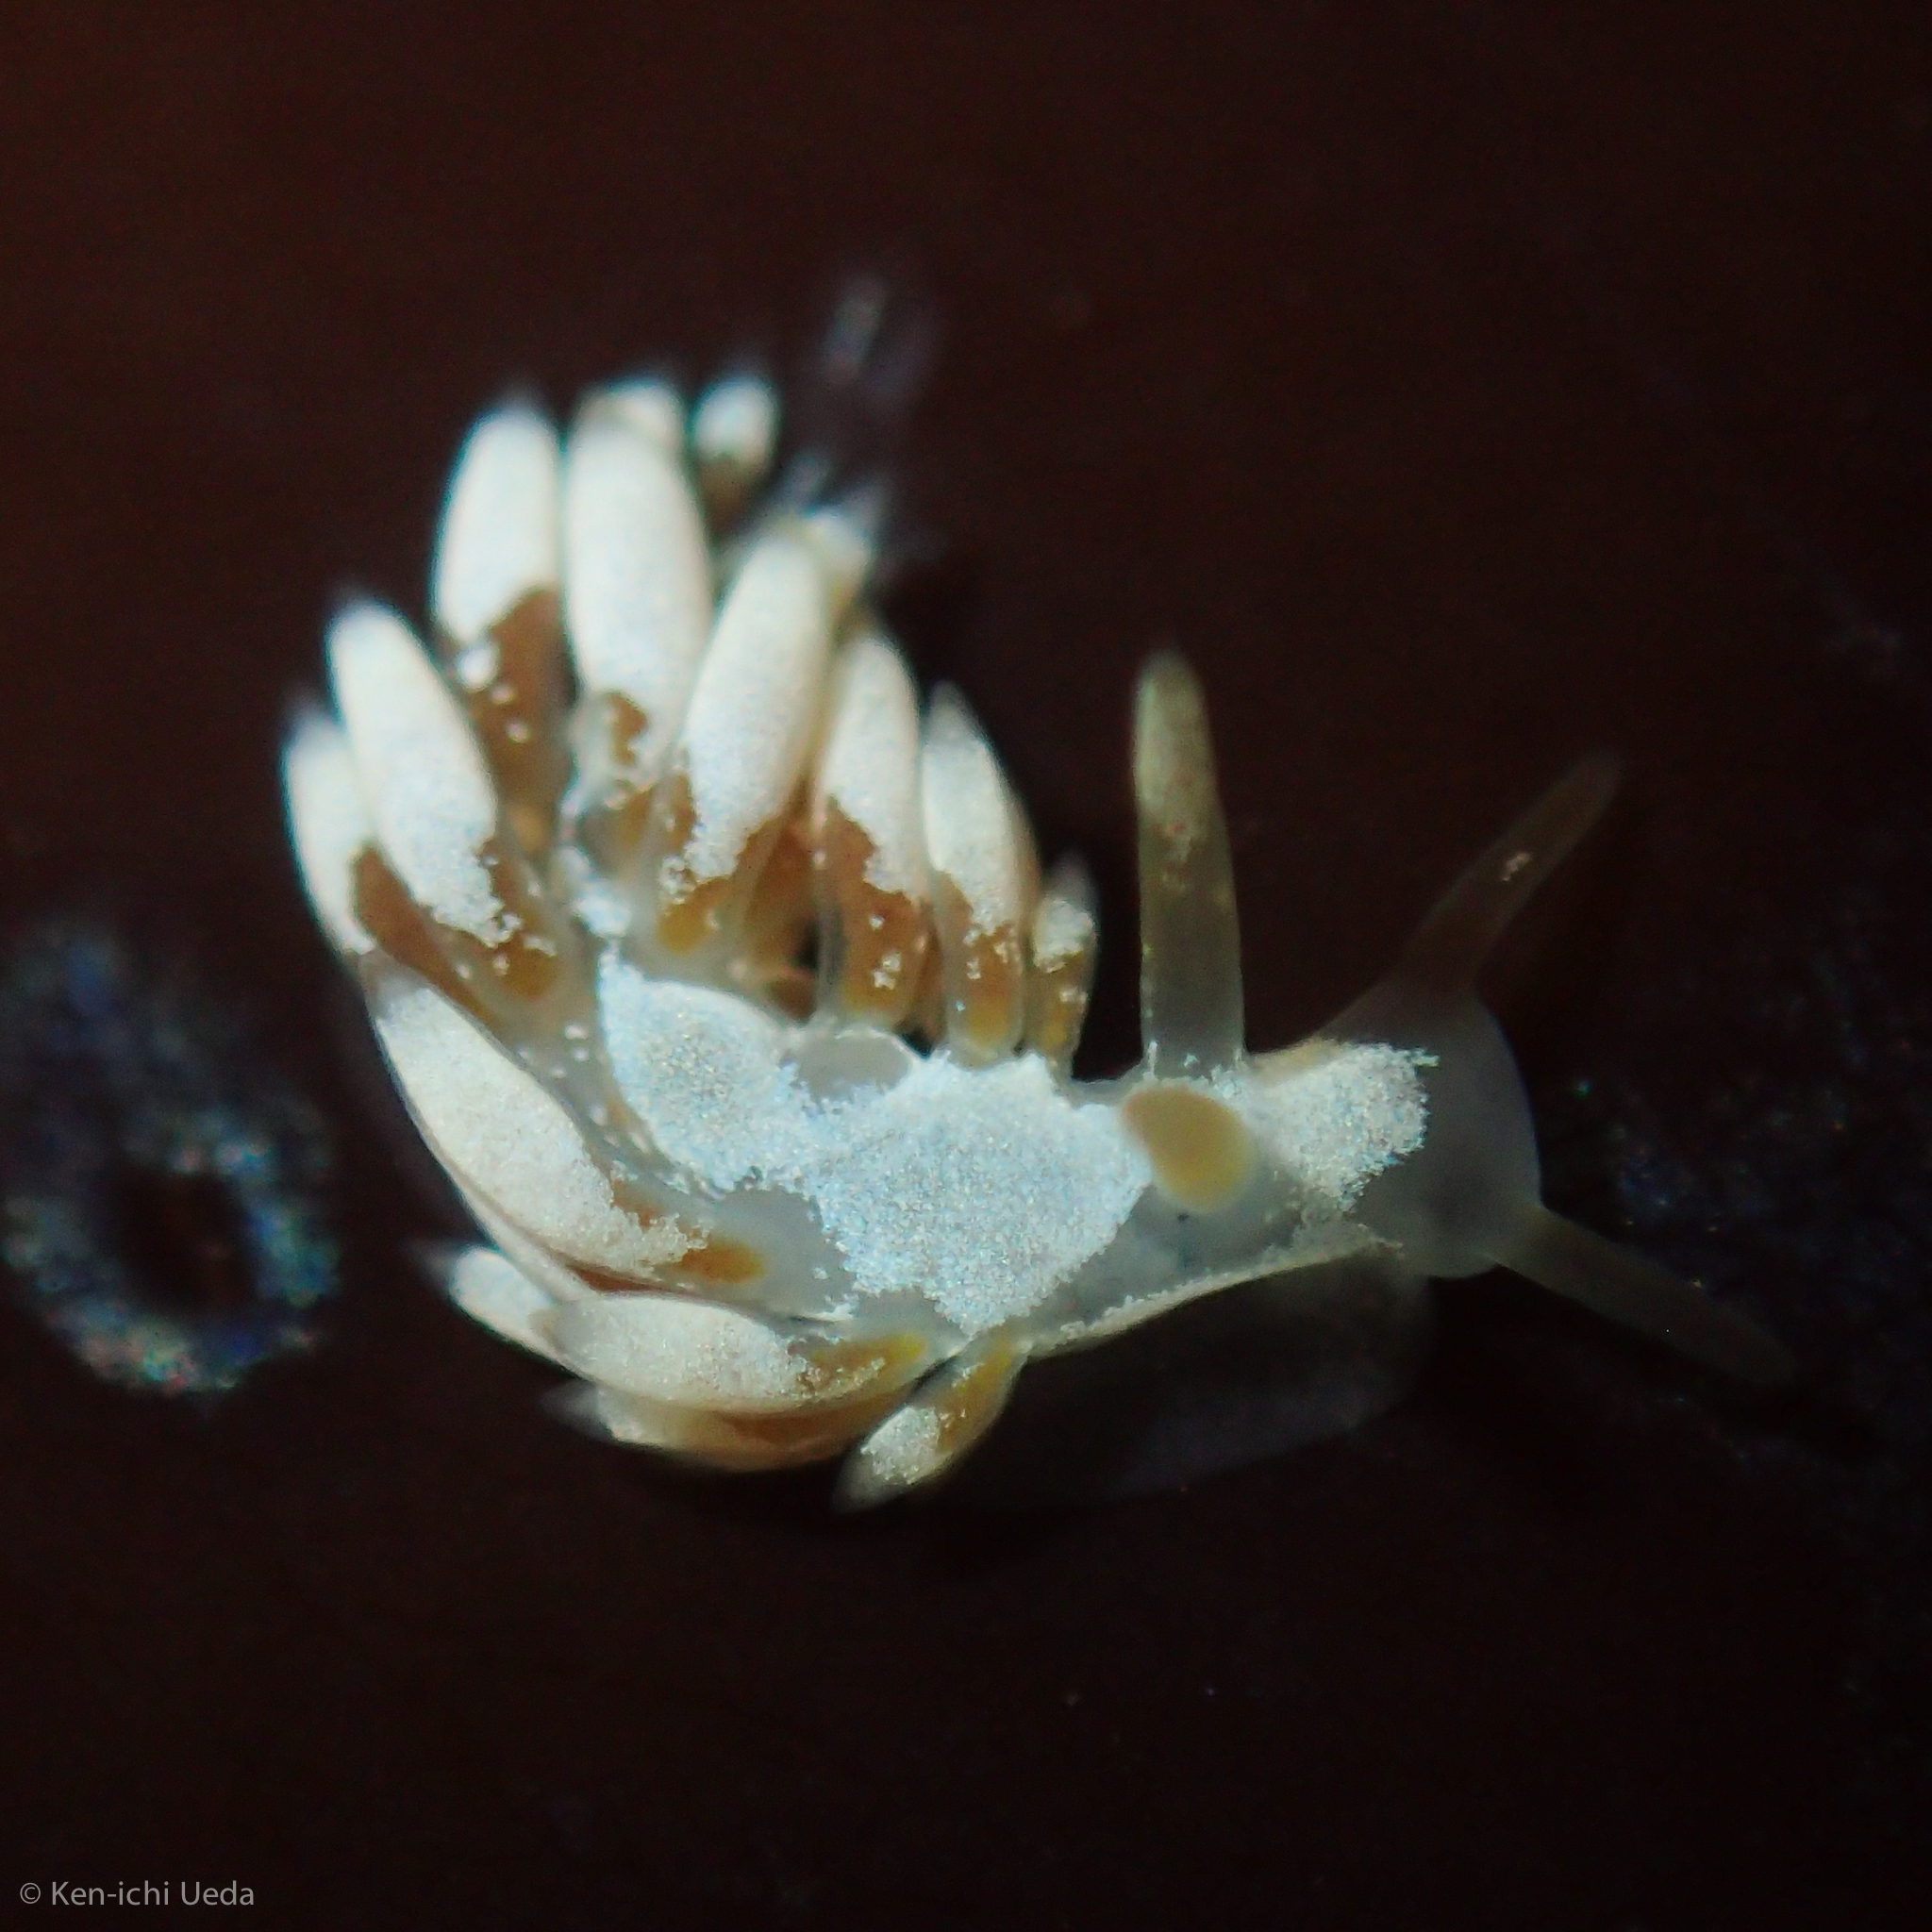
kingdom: Animalia
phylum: Mollusca
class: Gastropoda
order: Nudibranchia
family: Trinchesiidae
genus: Trinchesia
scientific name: Trinchesia albocrusta
